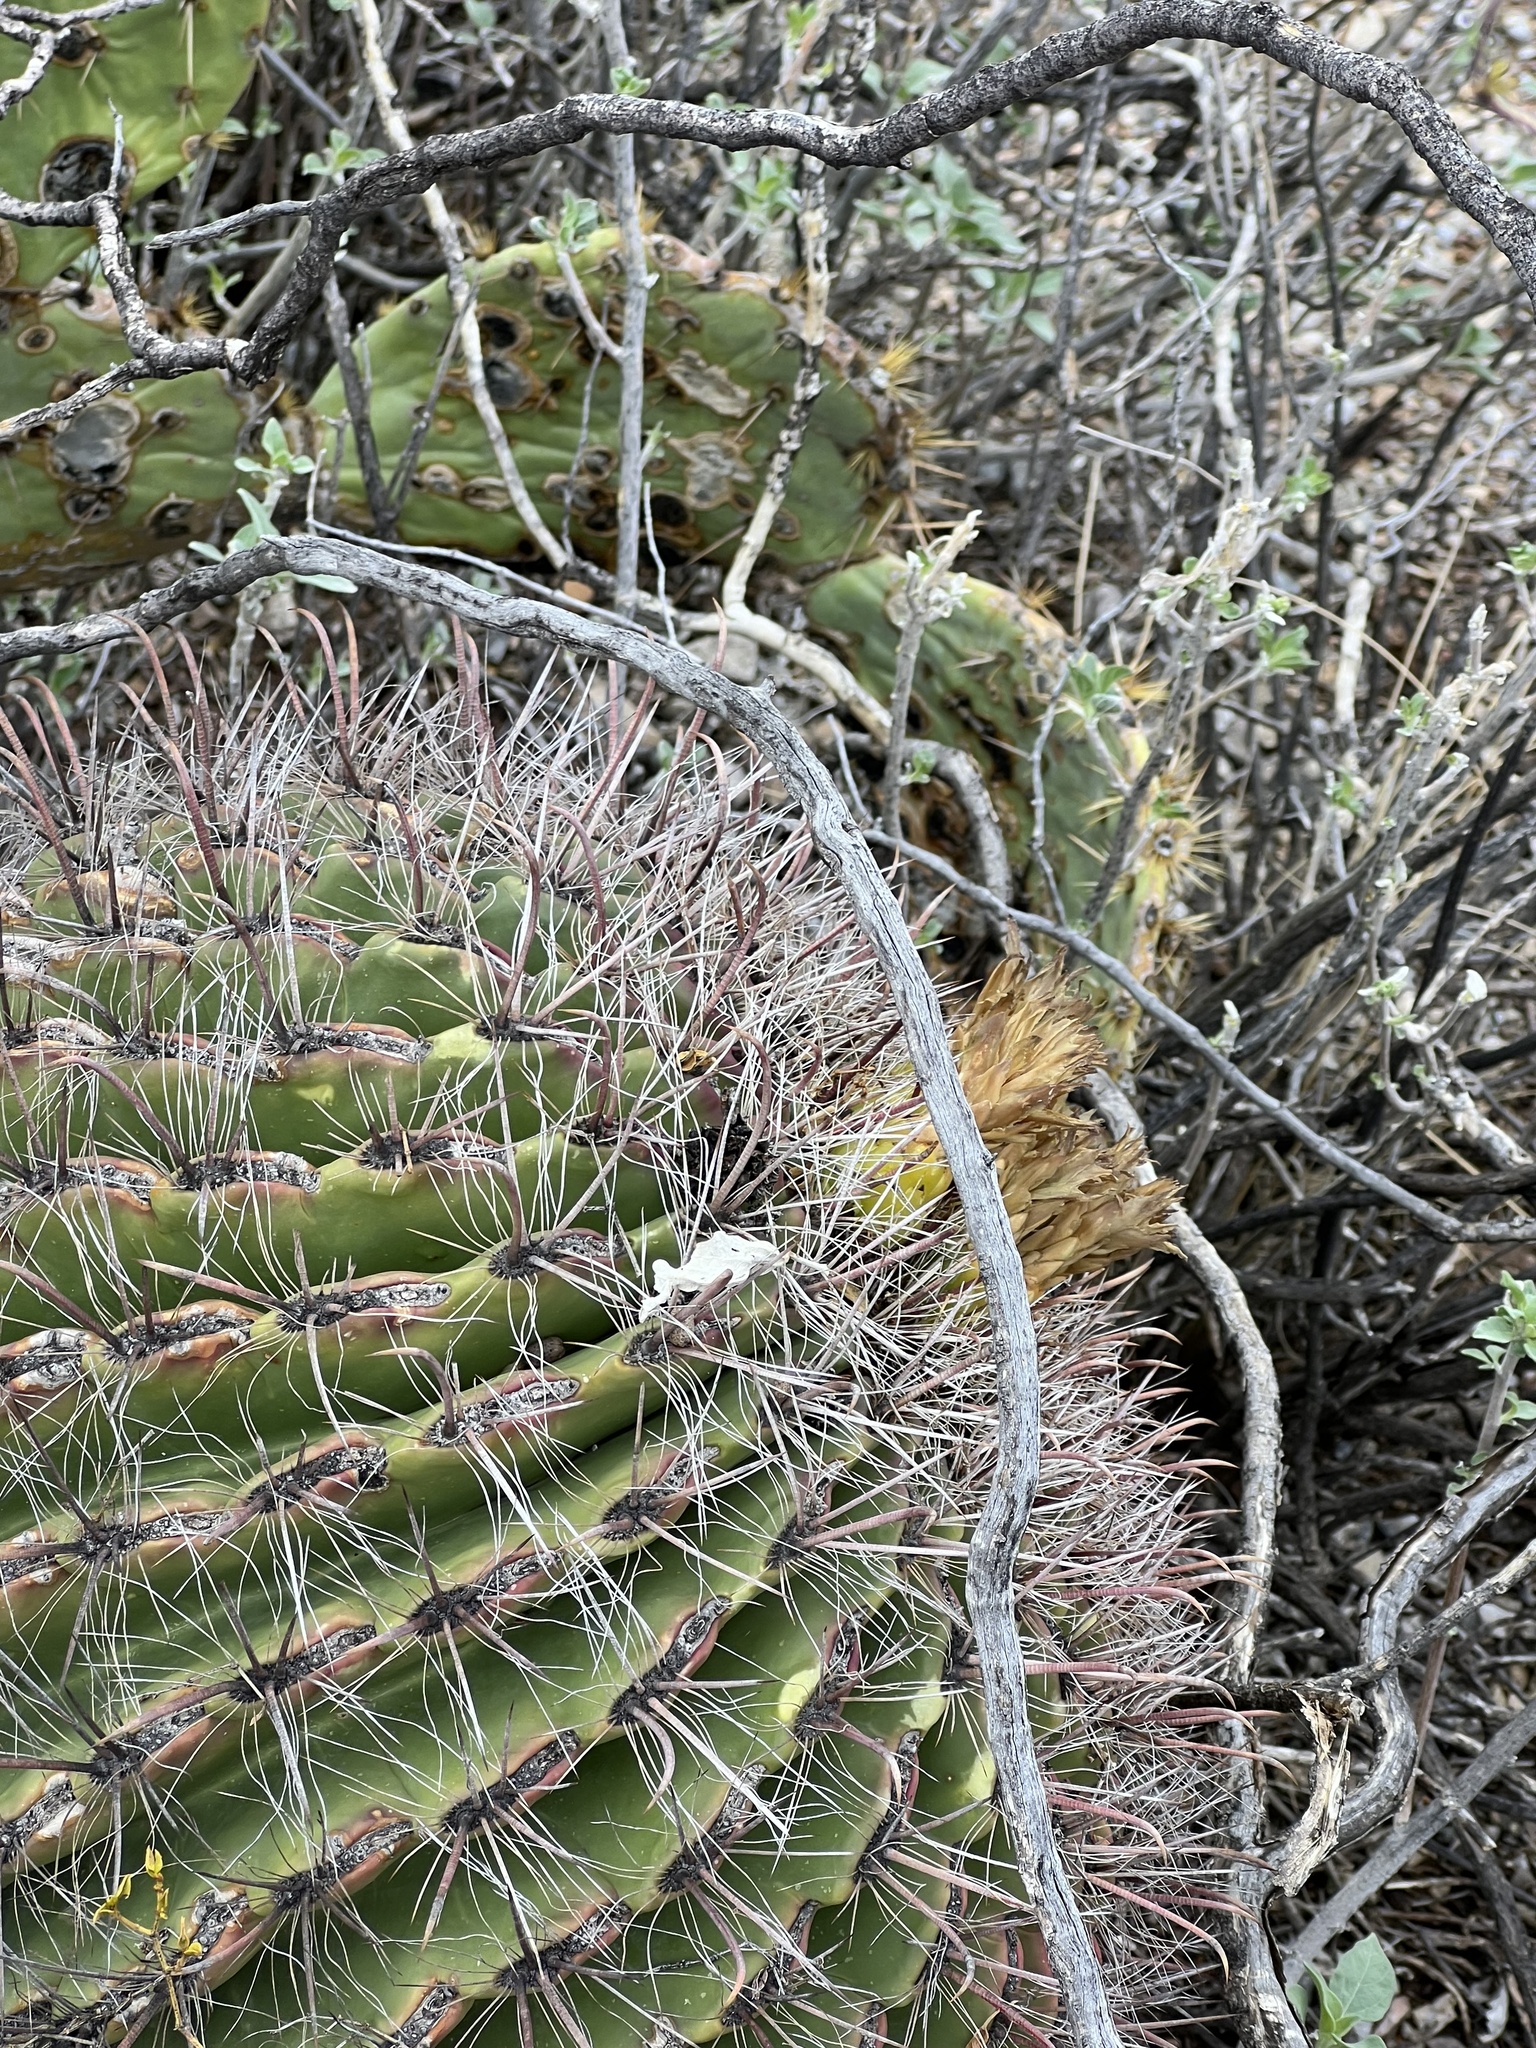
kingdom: Plantae
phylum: Tracheophyta
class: Magnoliopsida
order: Caryophyllales
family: Cactaceae
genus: Ferocactus
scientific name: Ferocactus wislizeni
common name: Candy barrel cactus
